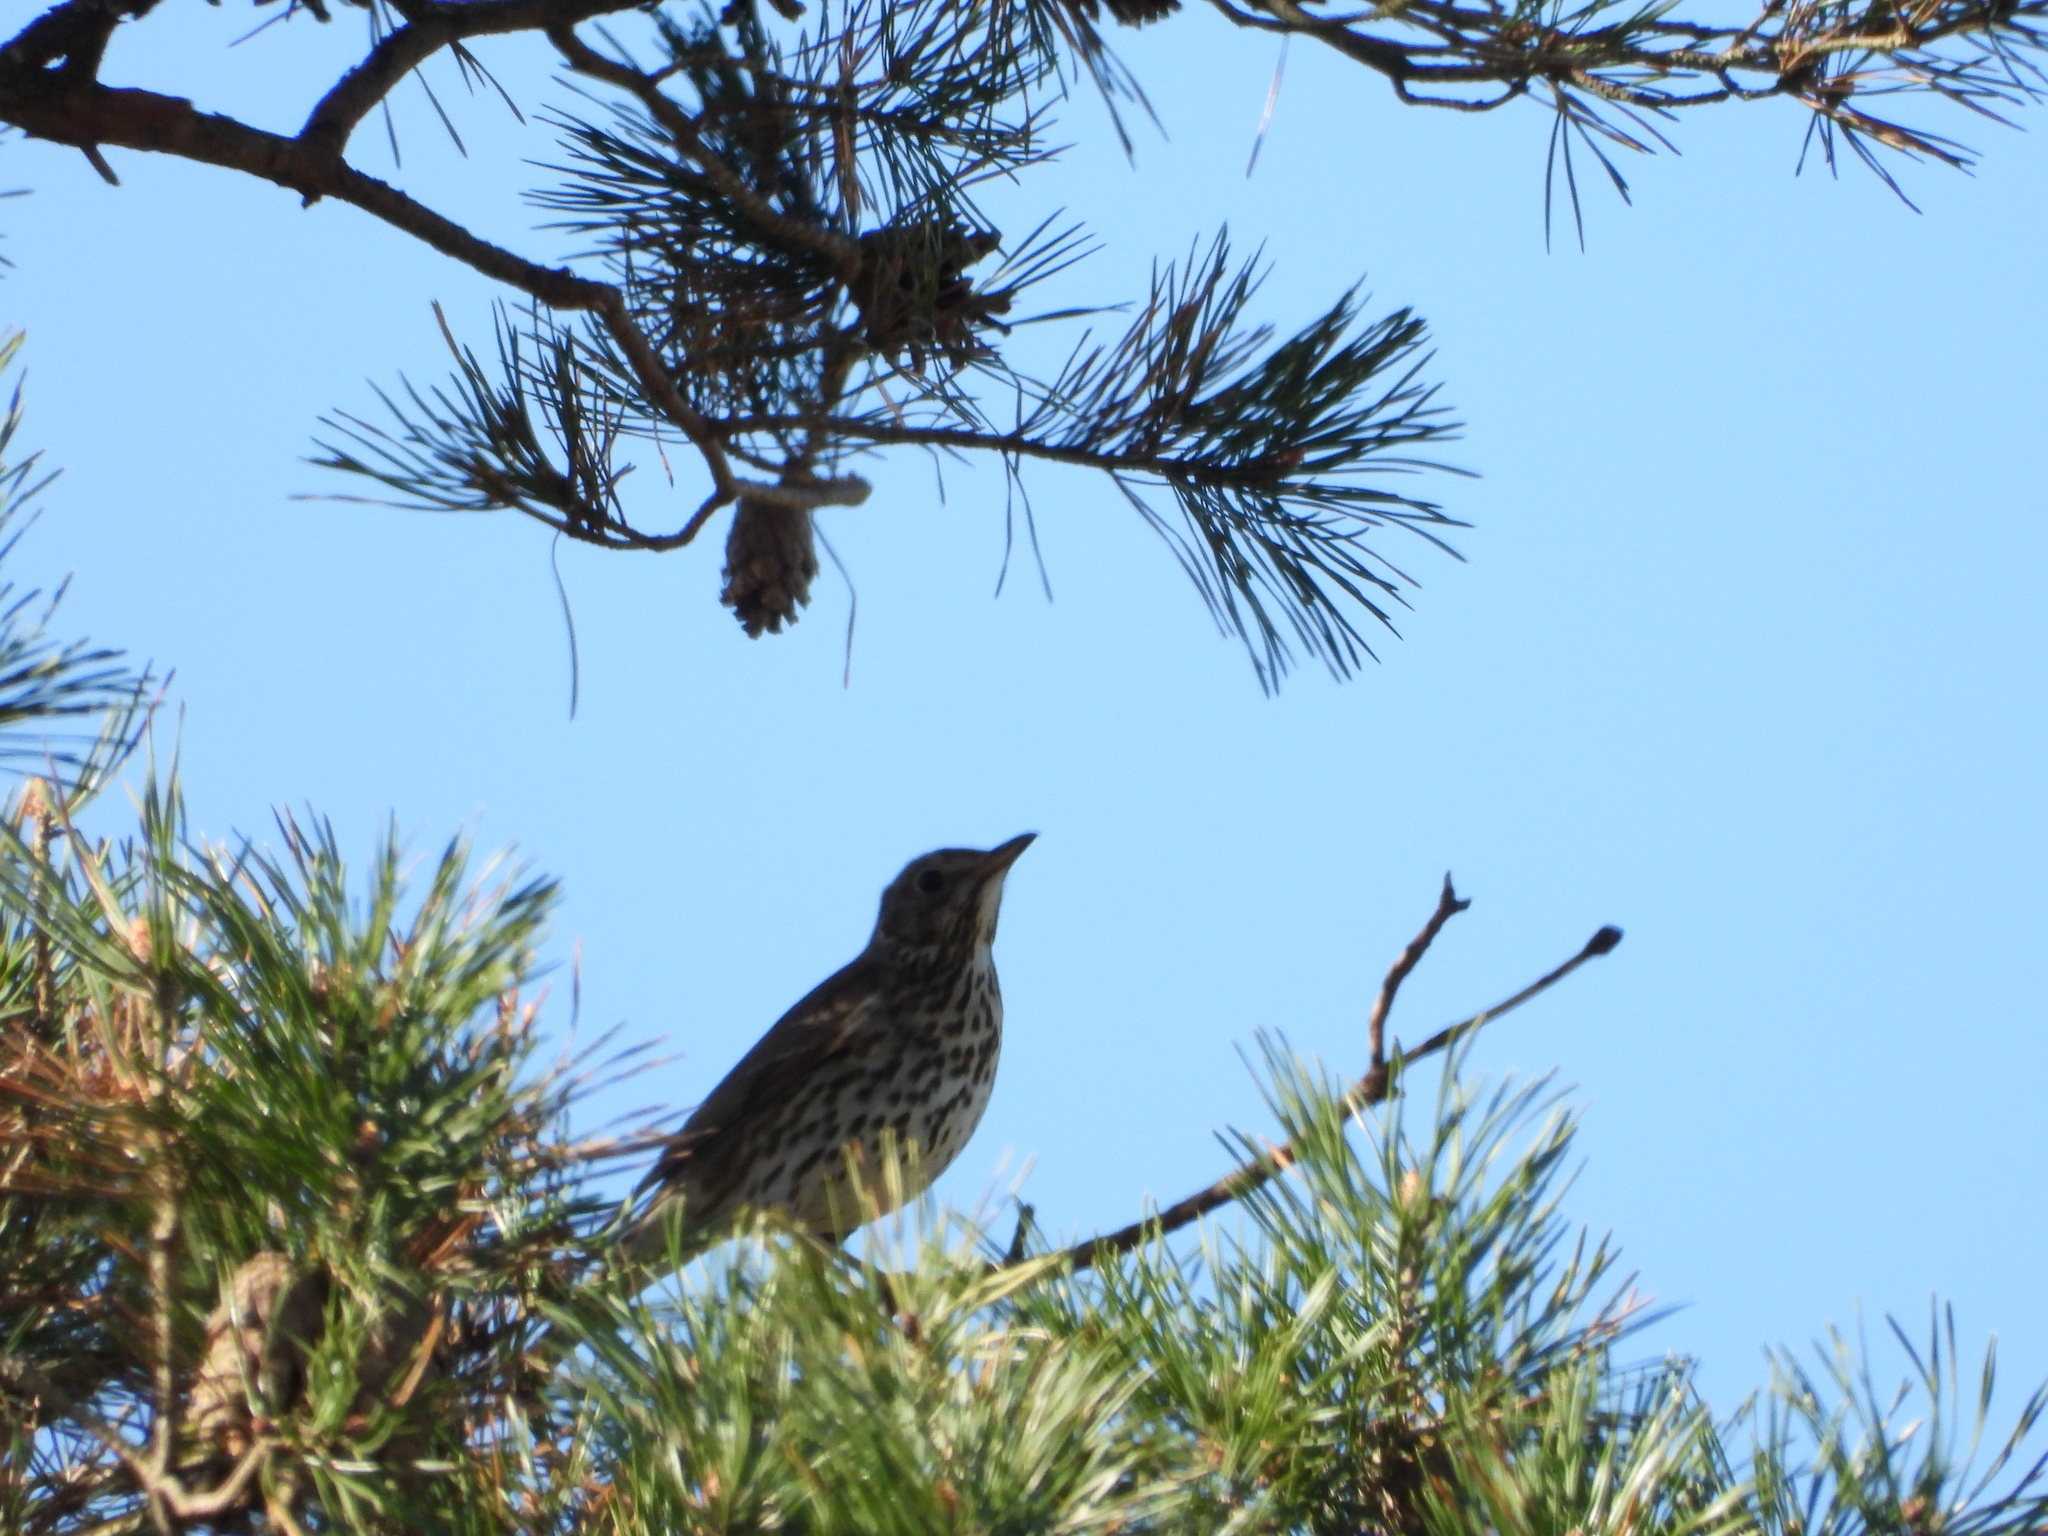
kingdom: Animalia
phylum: Chordata
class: Aves
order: Passeriformes
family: Turdidae
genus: Turdus
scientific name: Turdus philomelos
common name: Song thrush
